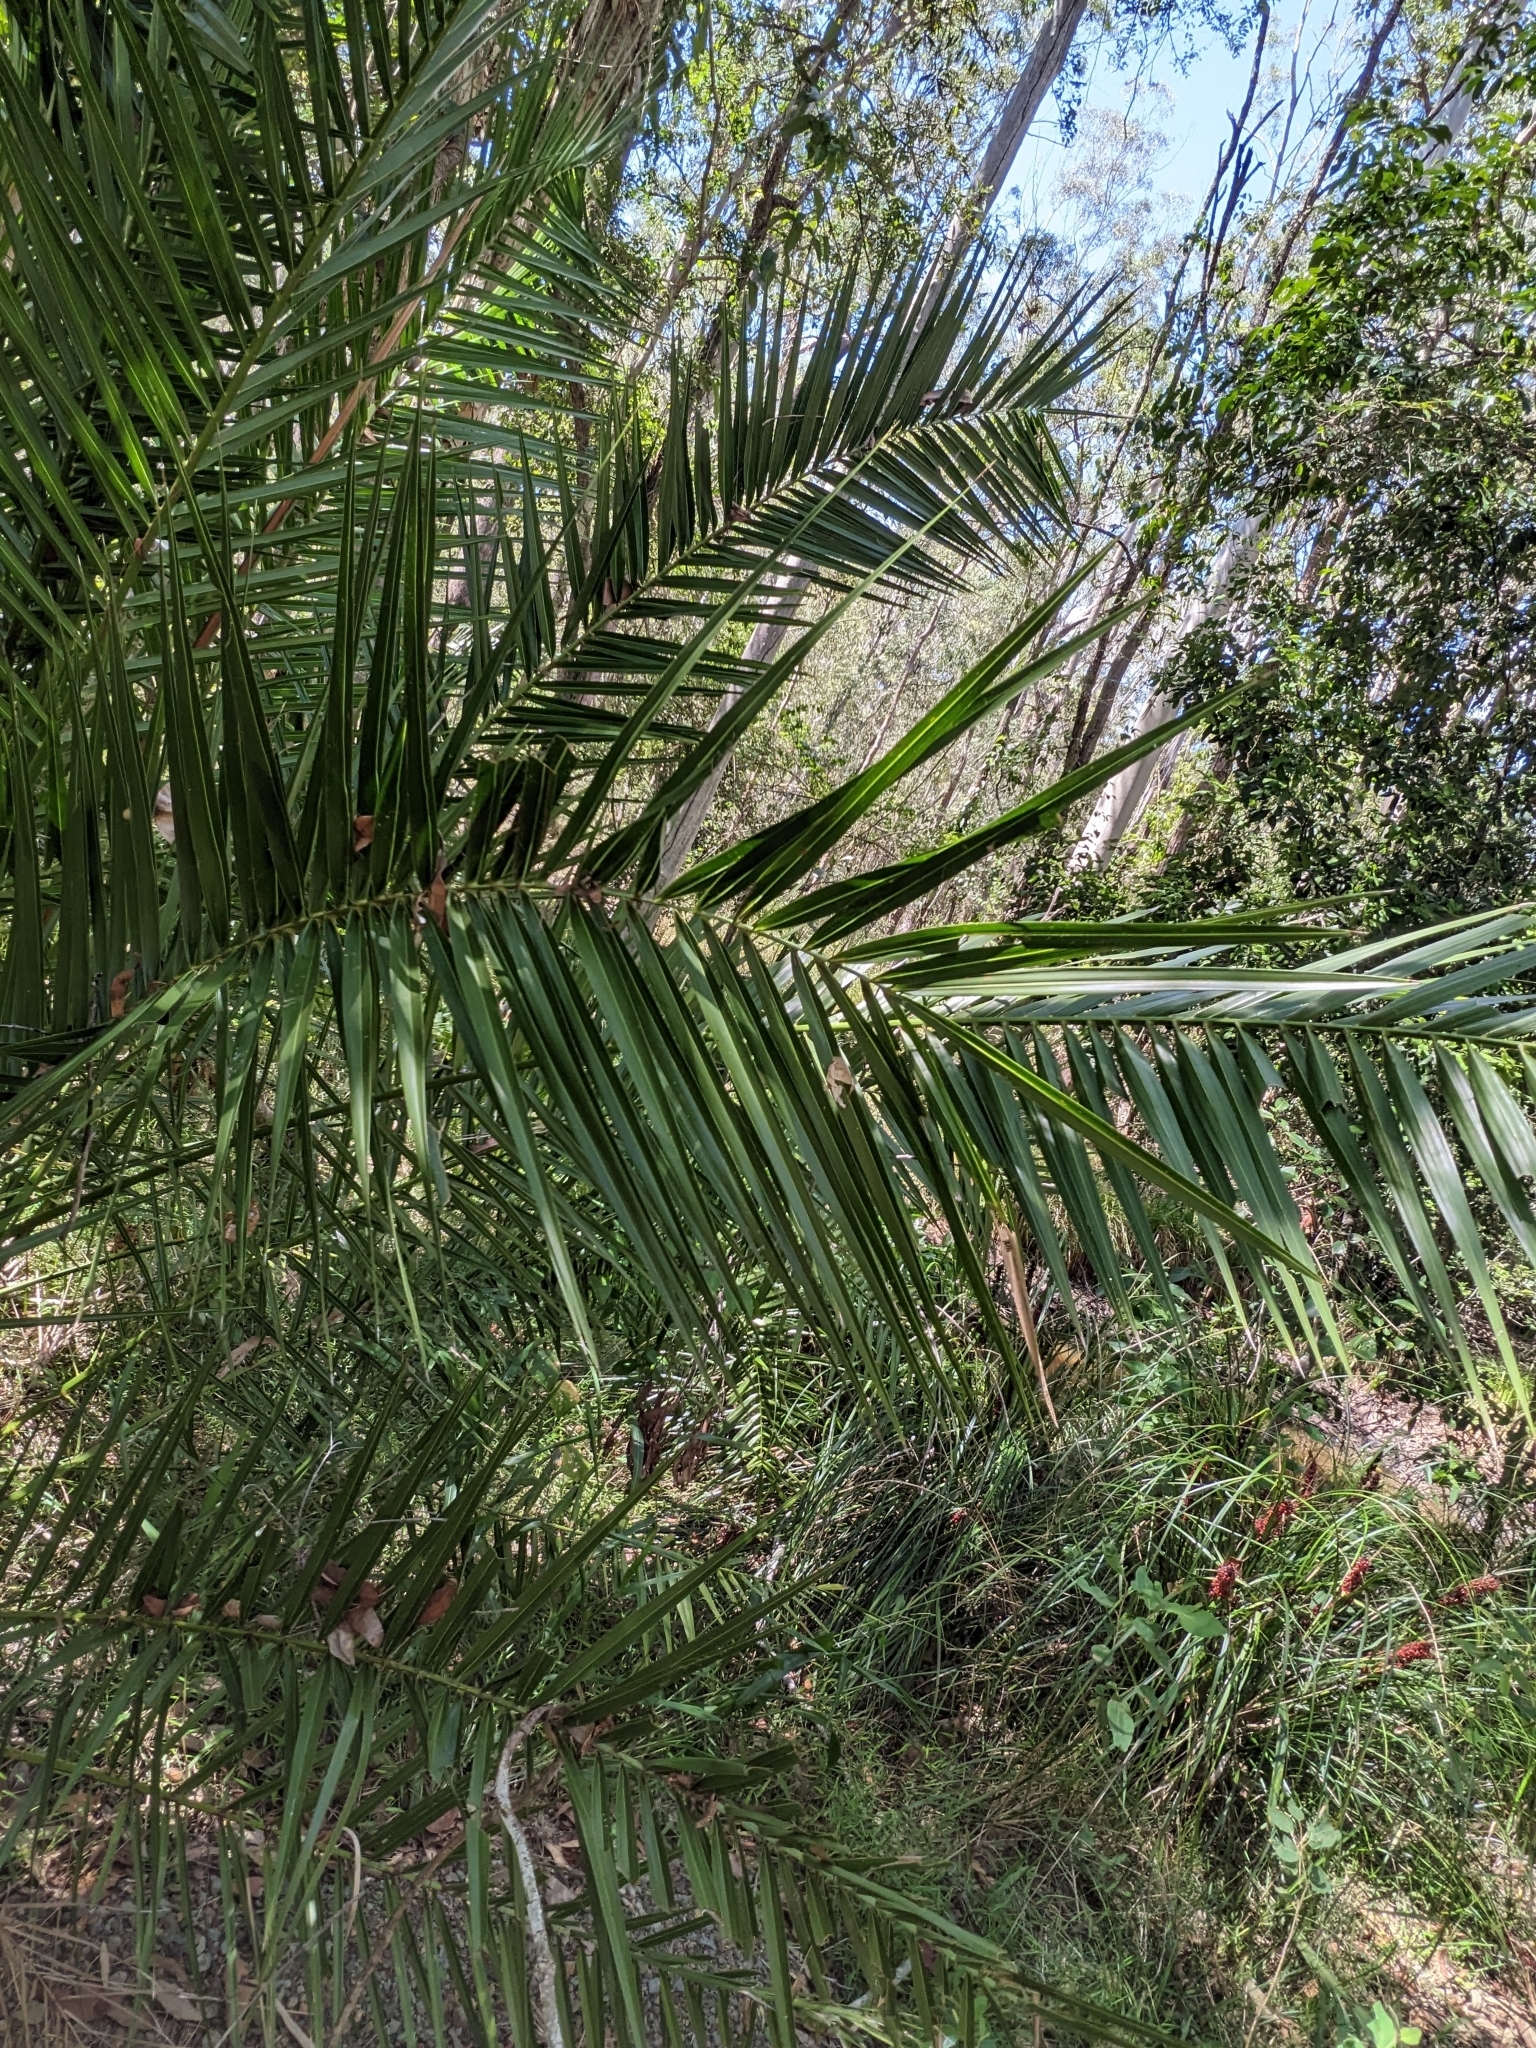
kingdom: Plantae
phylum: Tracheophyta
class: Liliopsida
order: Arecales
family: Arecaceae
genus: Phoenix
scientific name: Phoenix canariensis
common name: Canary island date palm
